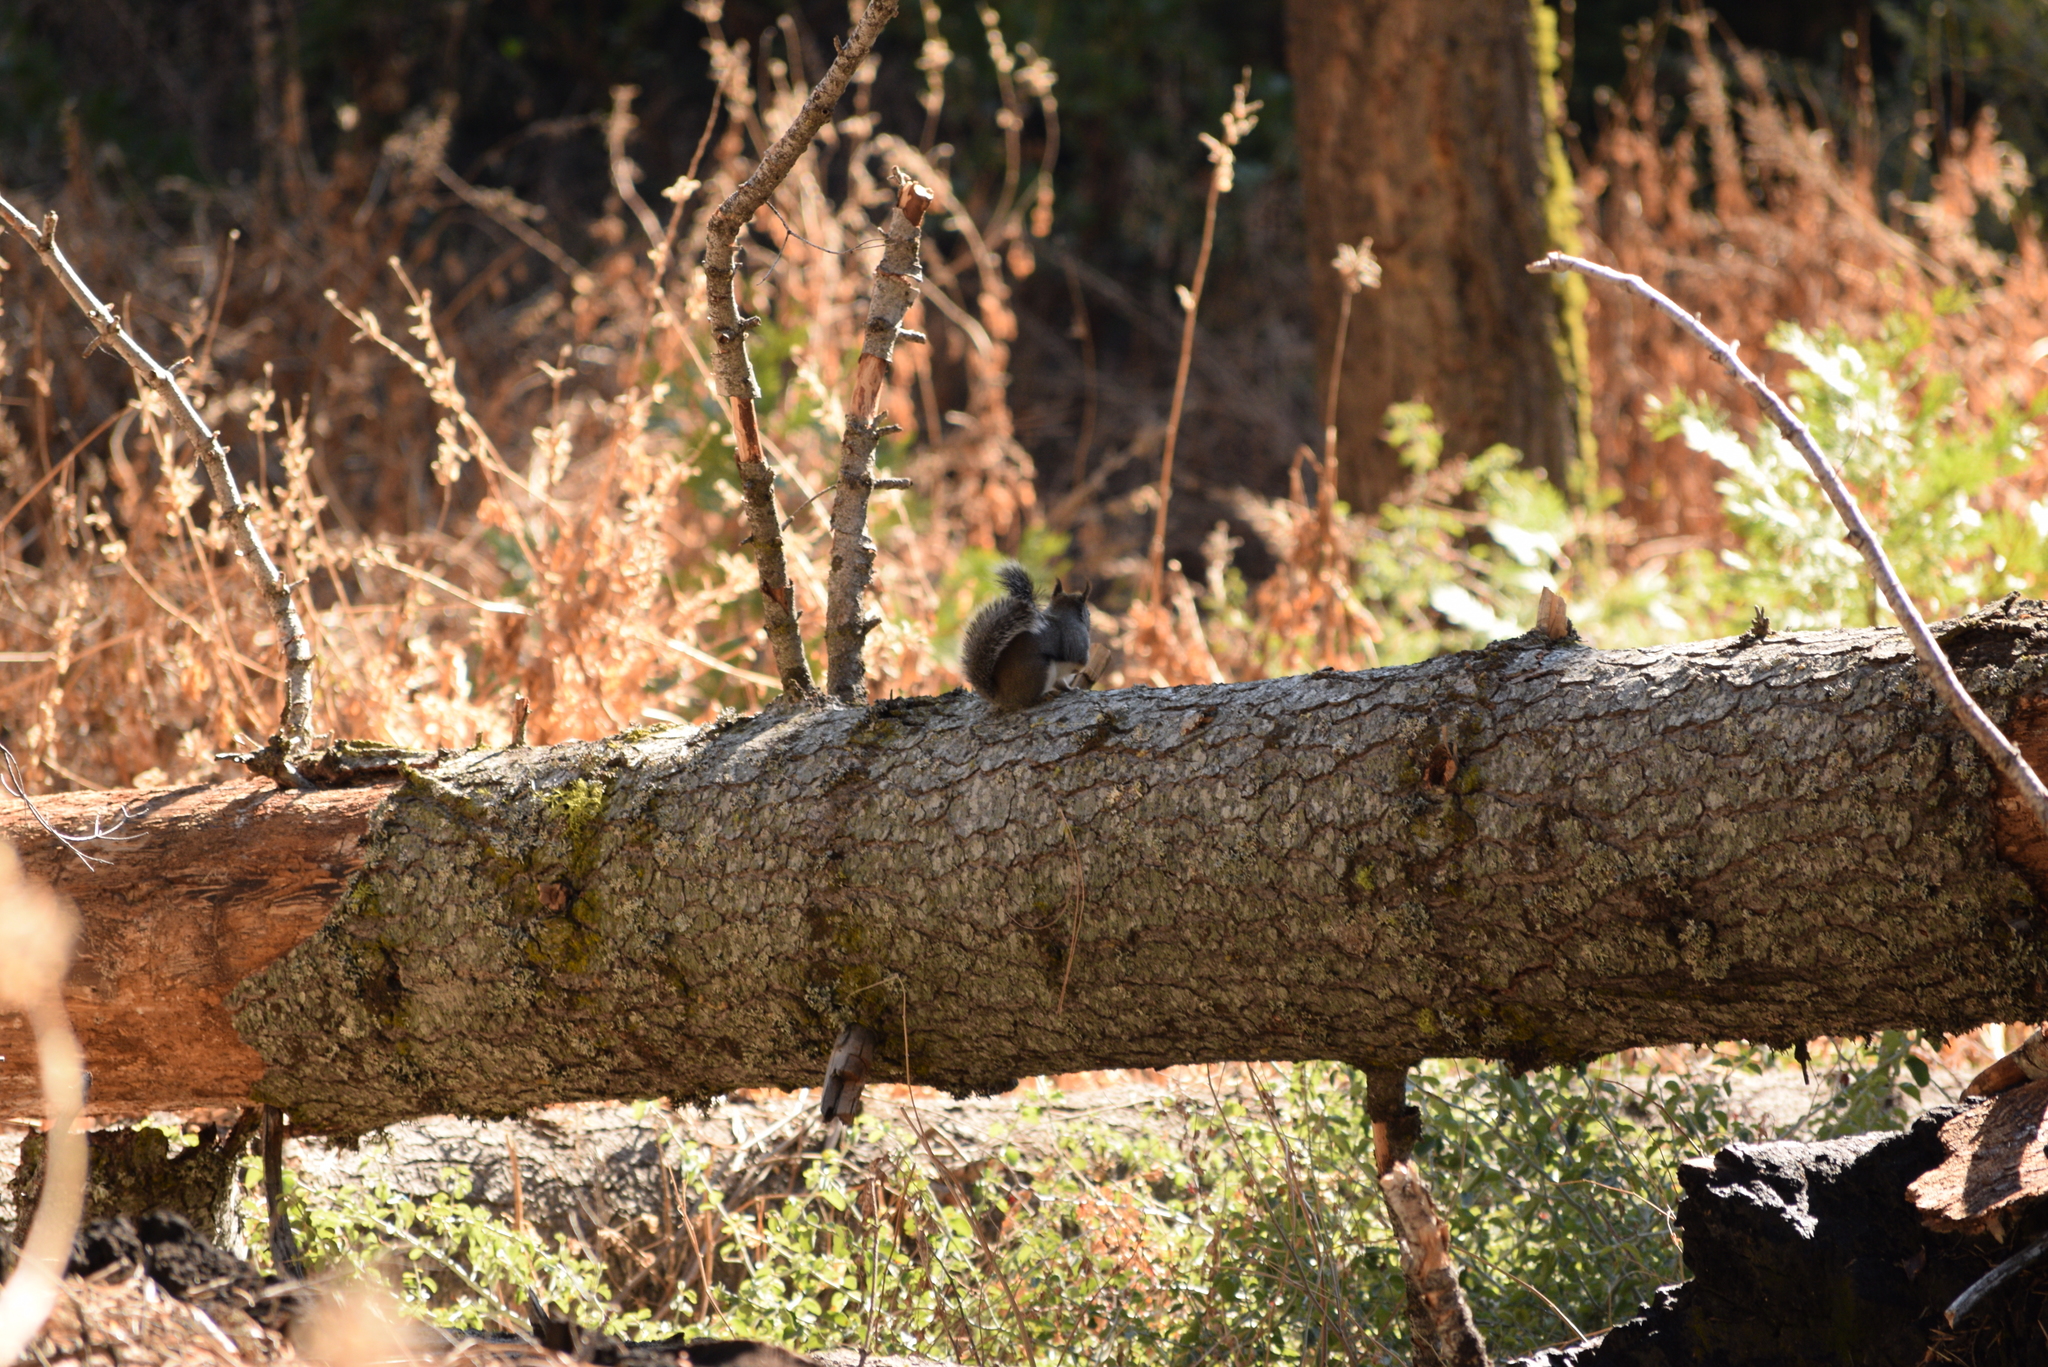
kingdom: Animalia
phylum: Chordata
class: Mammalia
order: Rodentia
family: Sciuridae
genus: Tamiasciurus
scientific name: Tamiasciurus douglasii
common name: Douglas's squirrel
